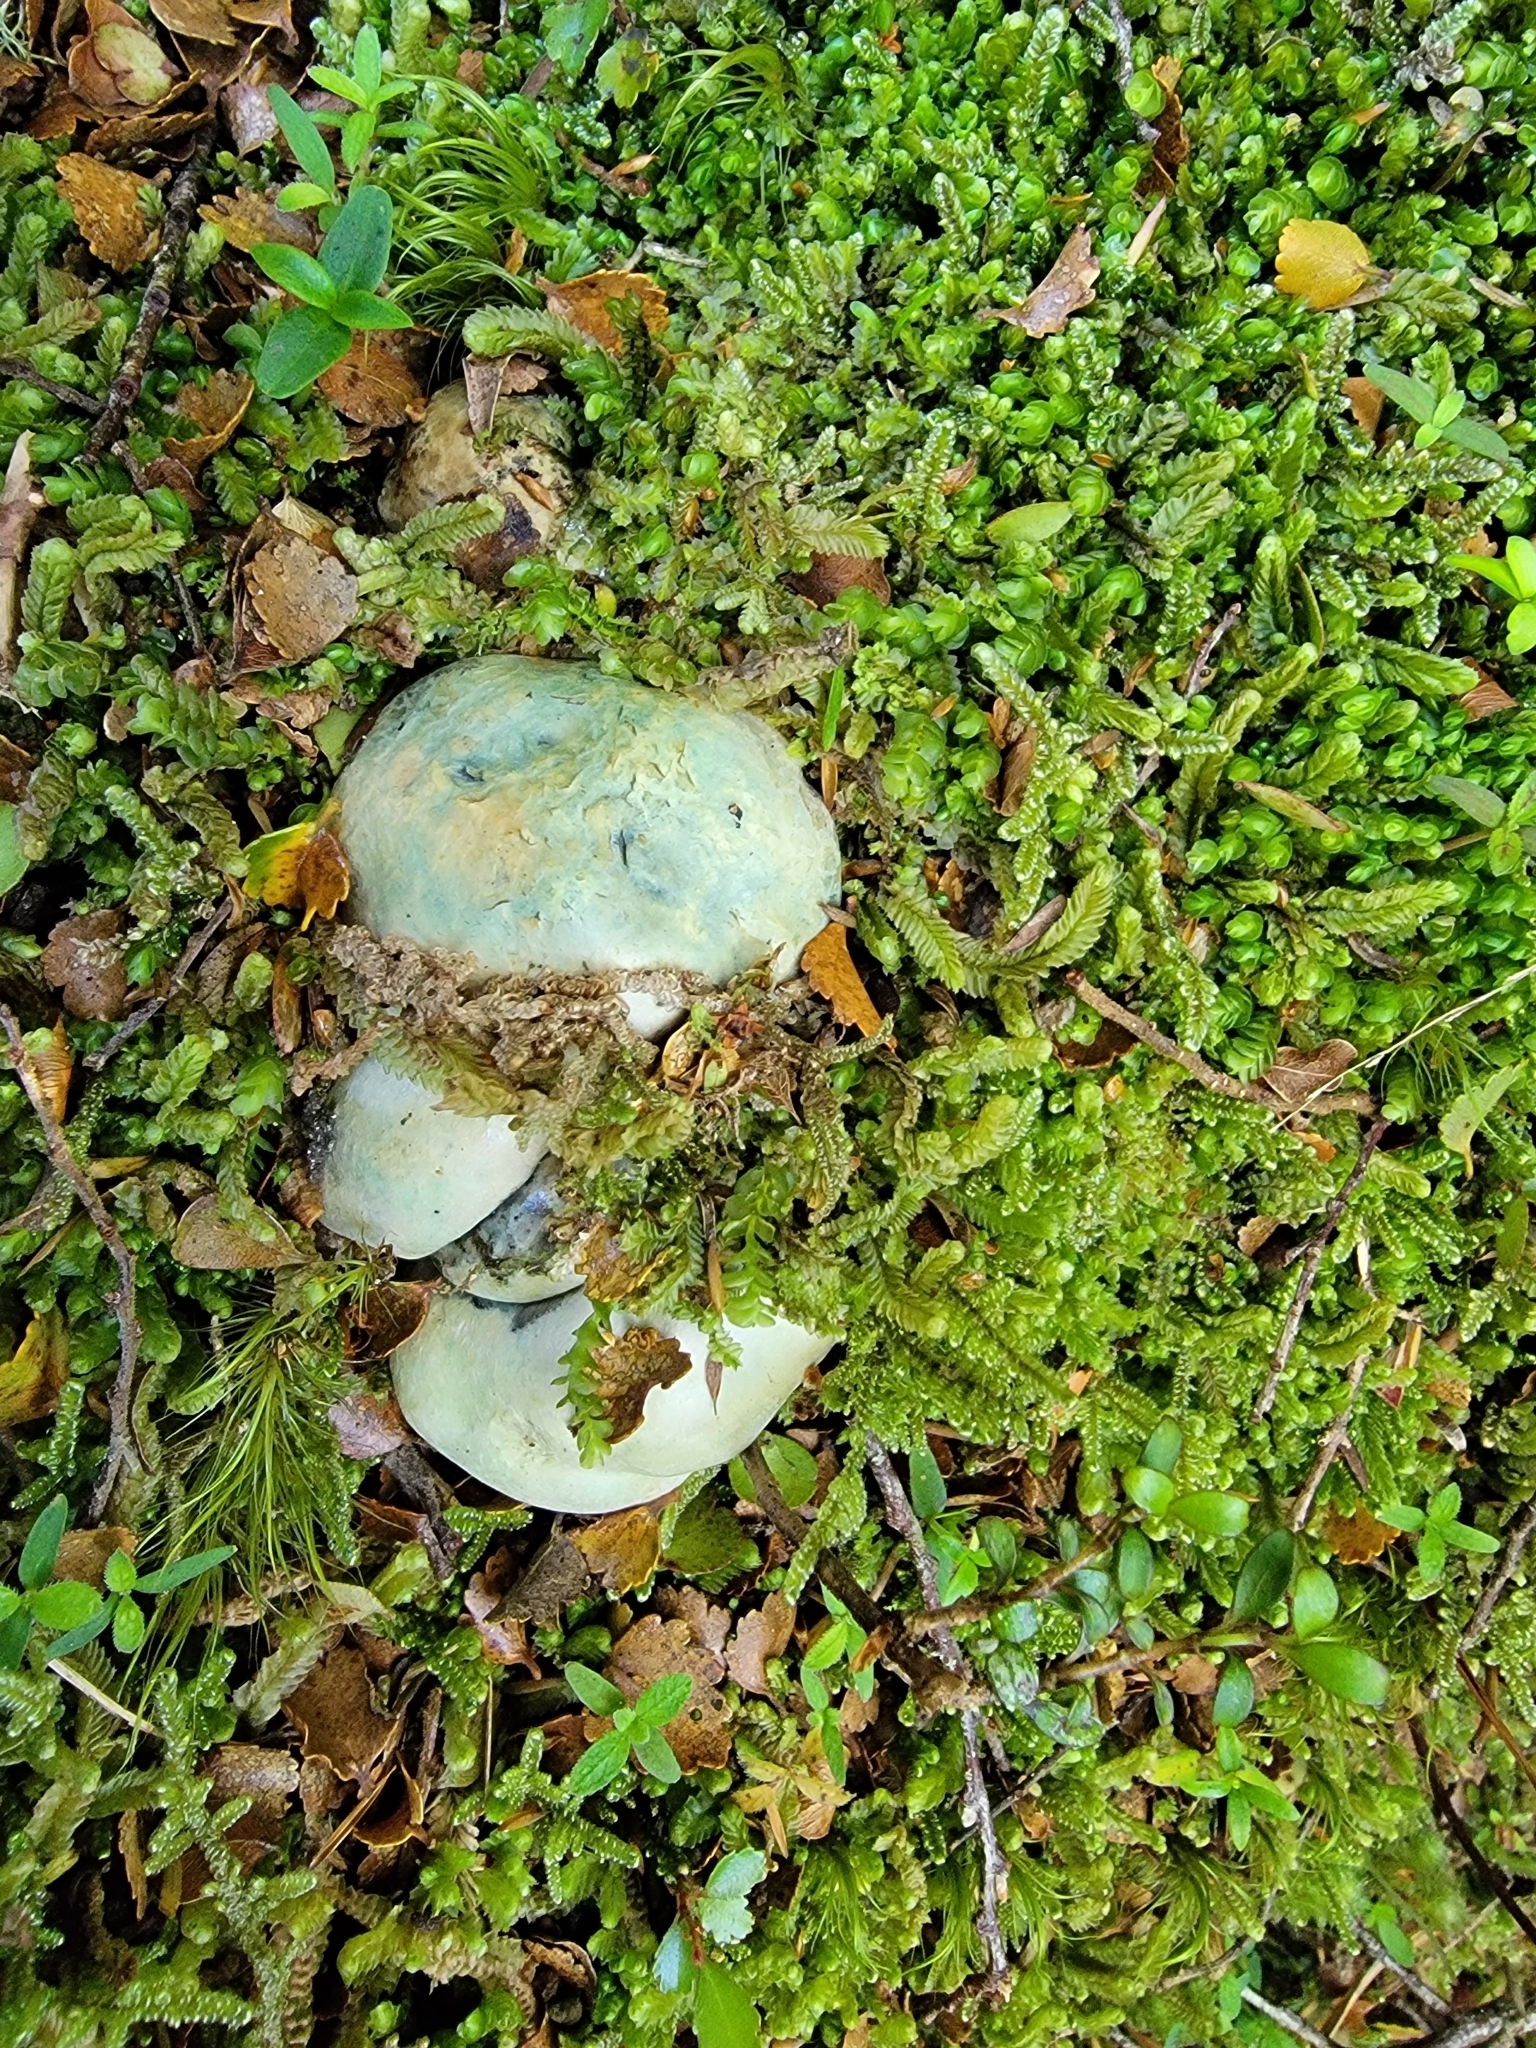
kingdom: Fungi
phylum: Basidiomycota
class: Agaricomycetes
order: Boletales
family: Boletaceae
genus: Leccinum
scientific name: Leccinum pachyderme
